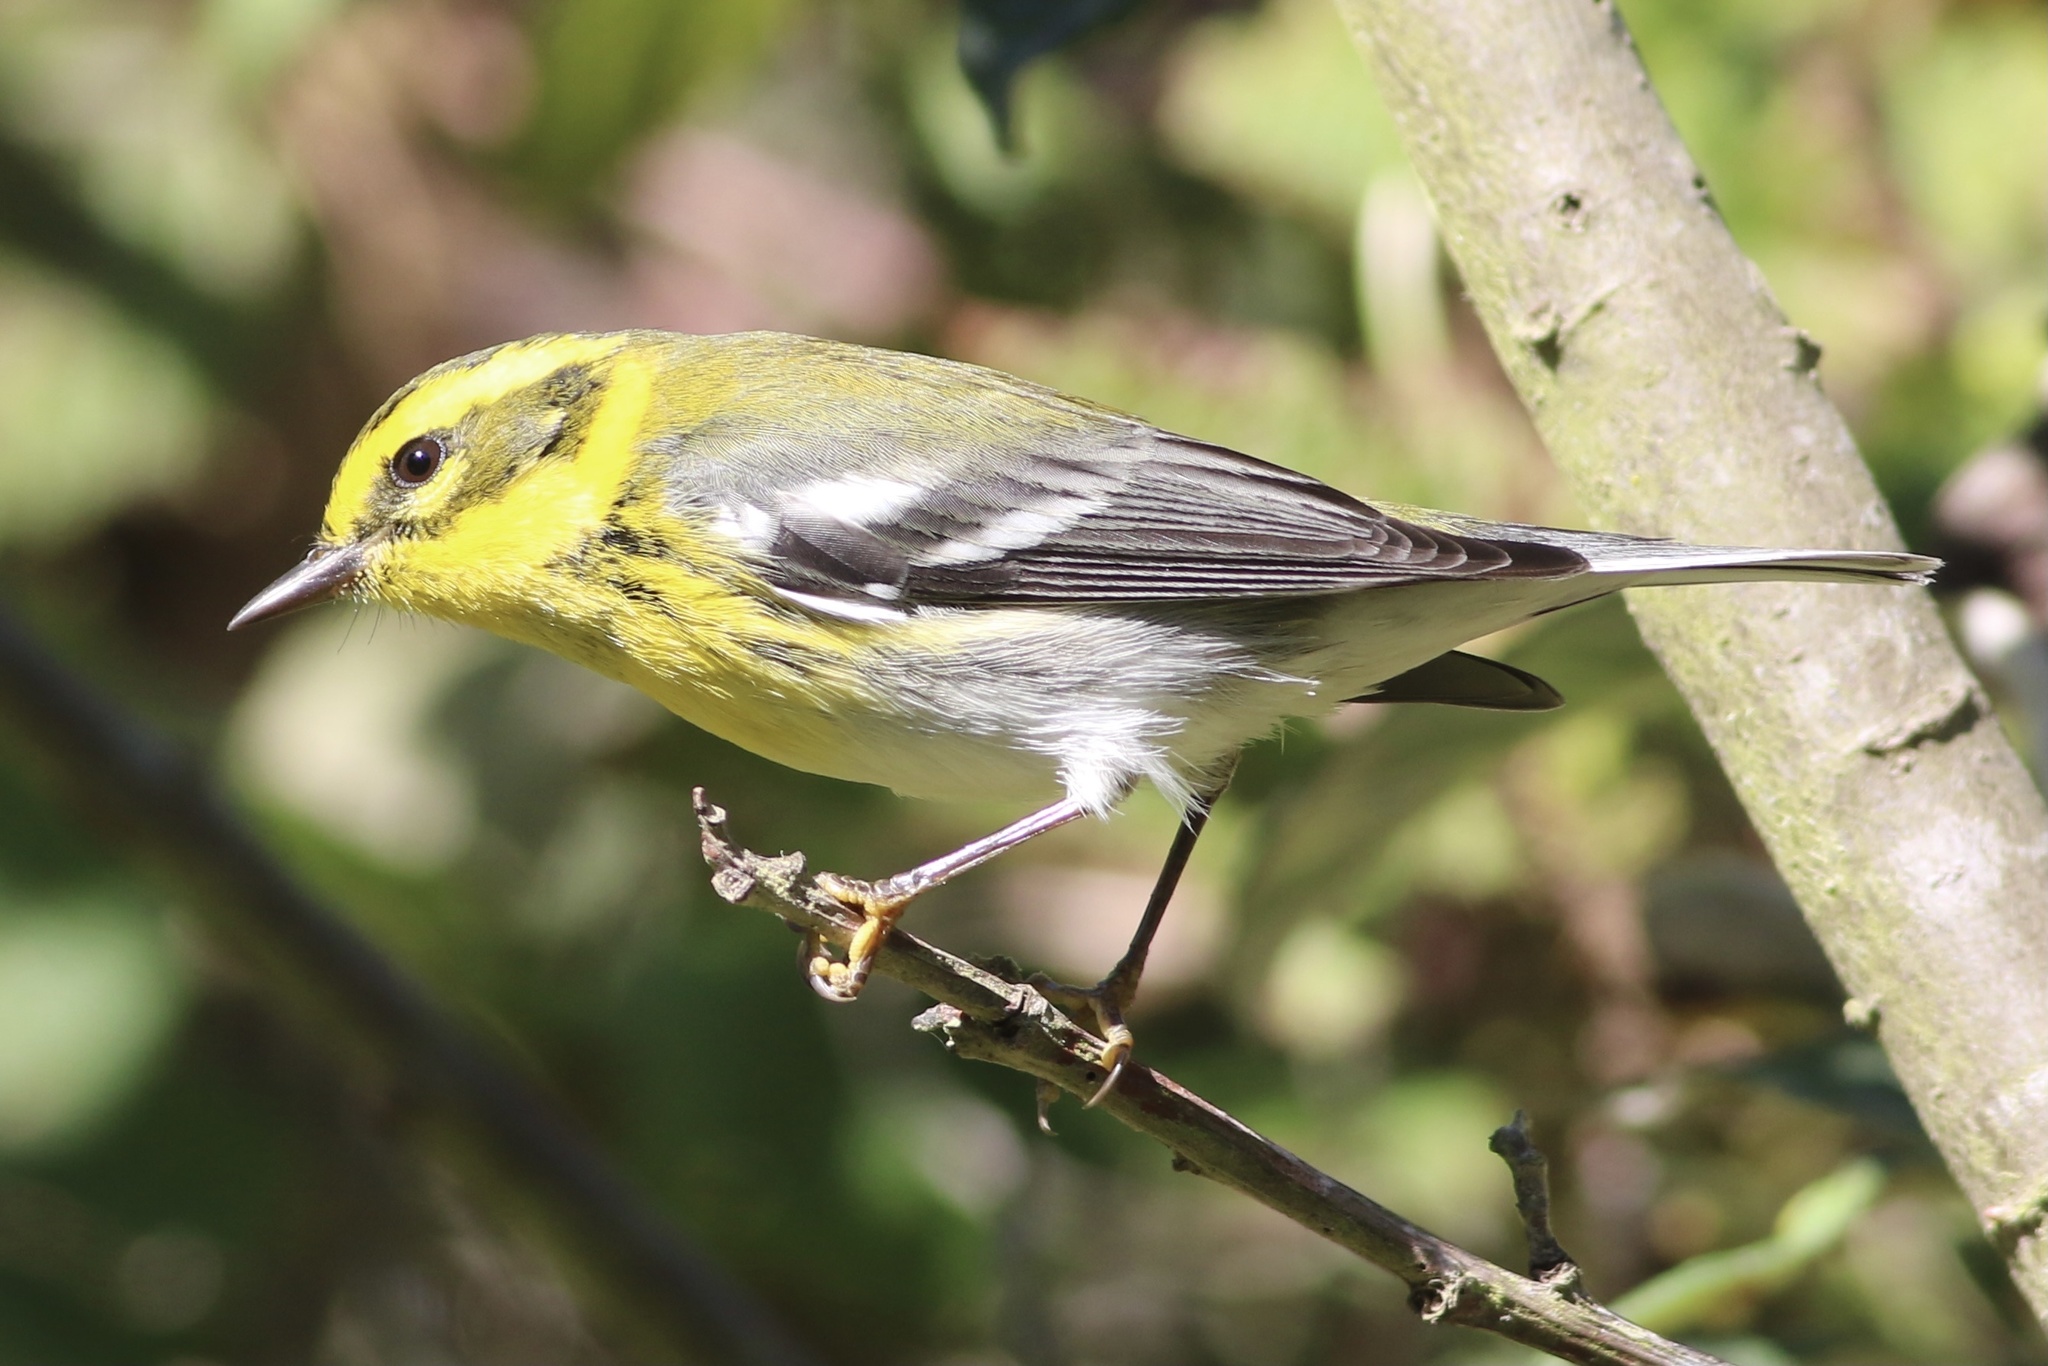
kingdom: Animalia
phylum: Chordata
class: Aves
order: Passeriformes
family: Parulidae
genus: Setophaga
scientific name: Setophaga townsendi
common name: Townsend's warbler
